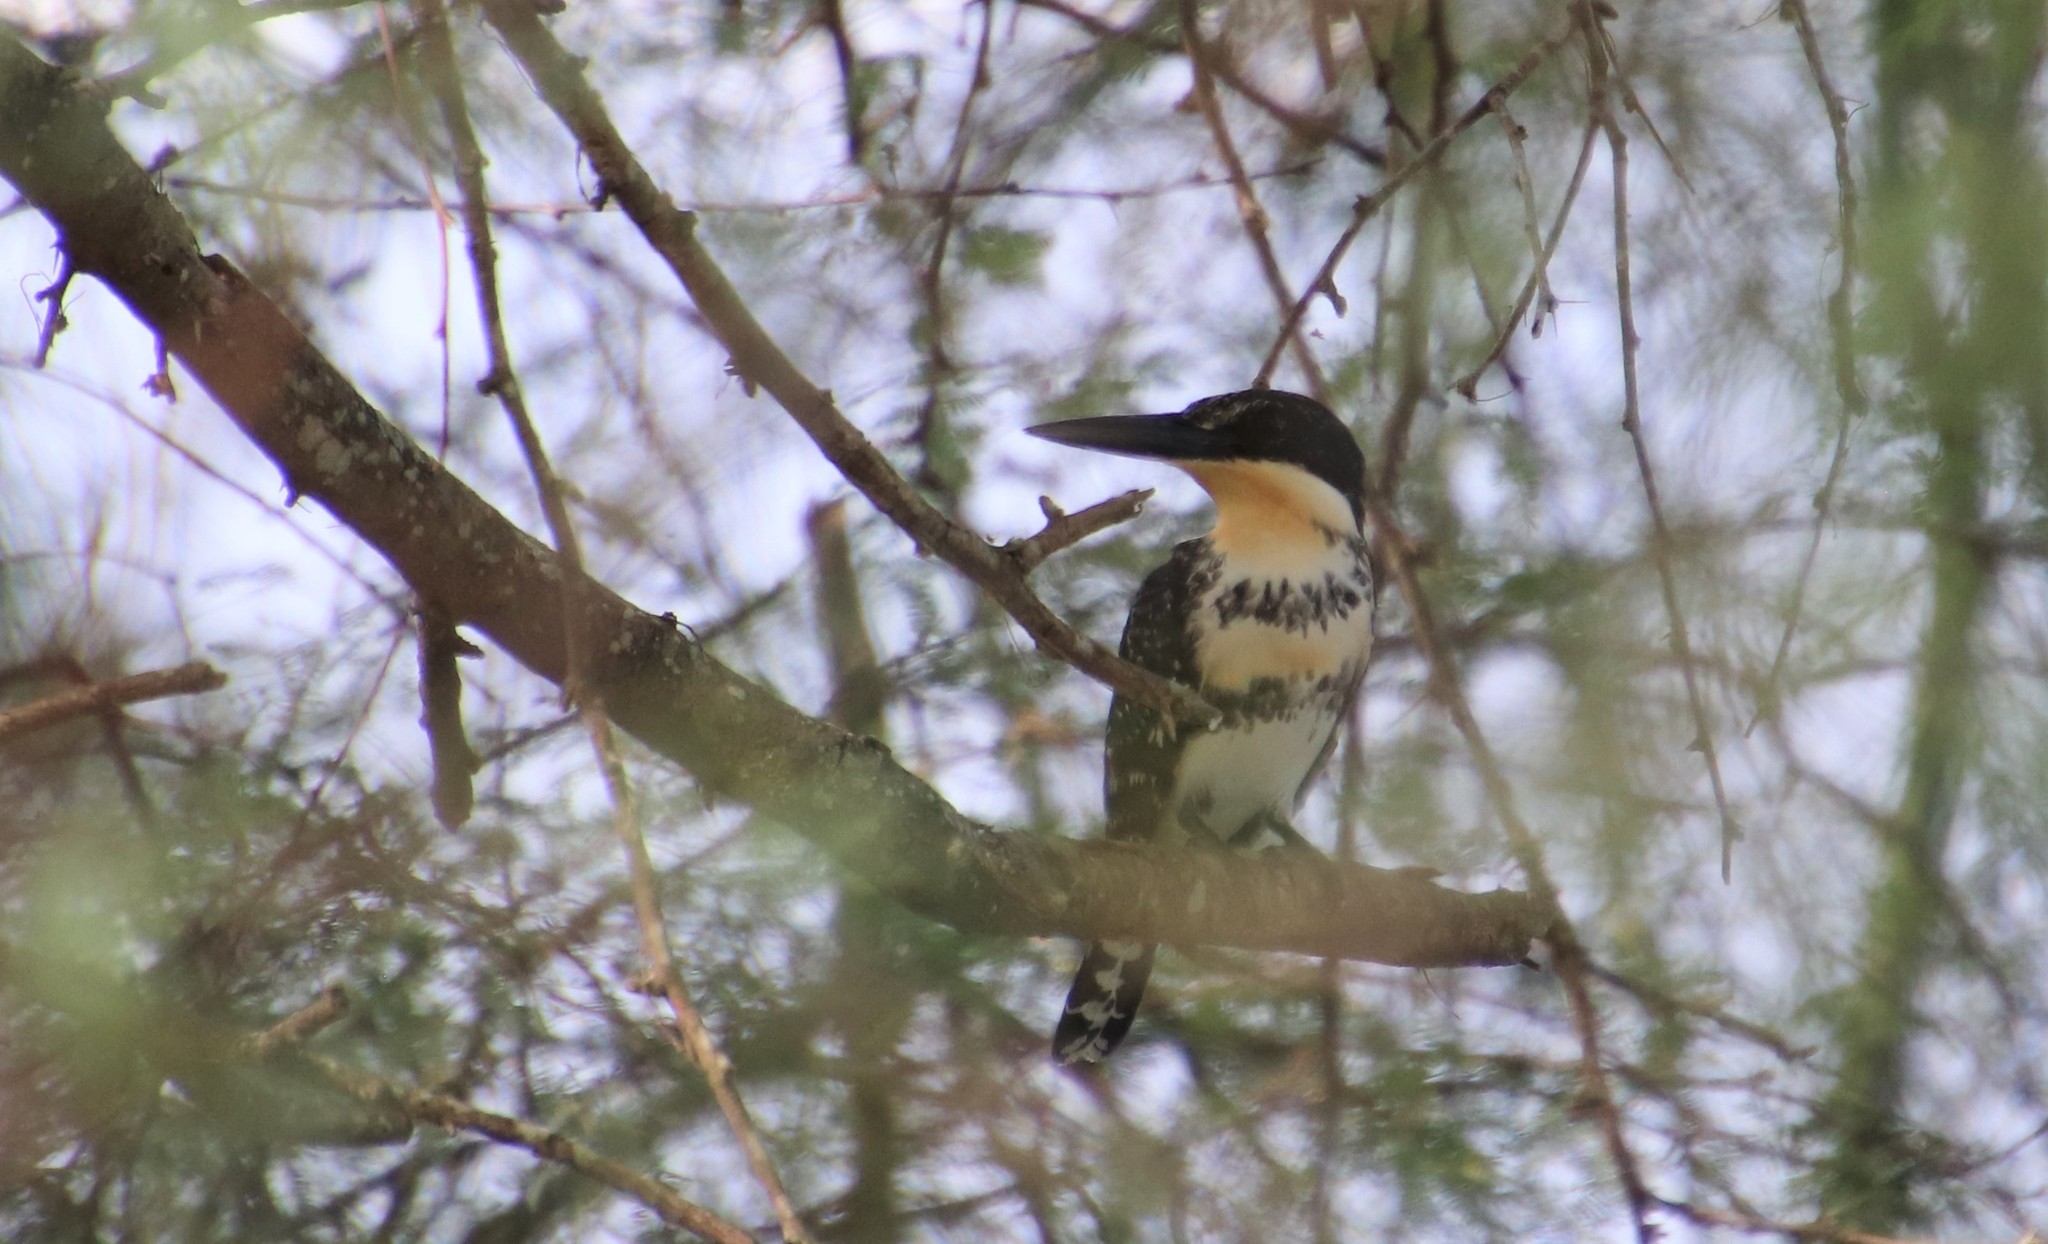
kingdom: Animalia
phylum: Chordata
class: Aves
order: Coraciiformes
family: Alcedinidae
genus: Chloroceryle
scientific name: Chloroceryle americana
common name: Green kingfisher
